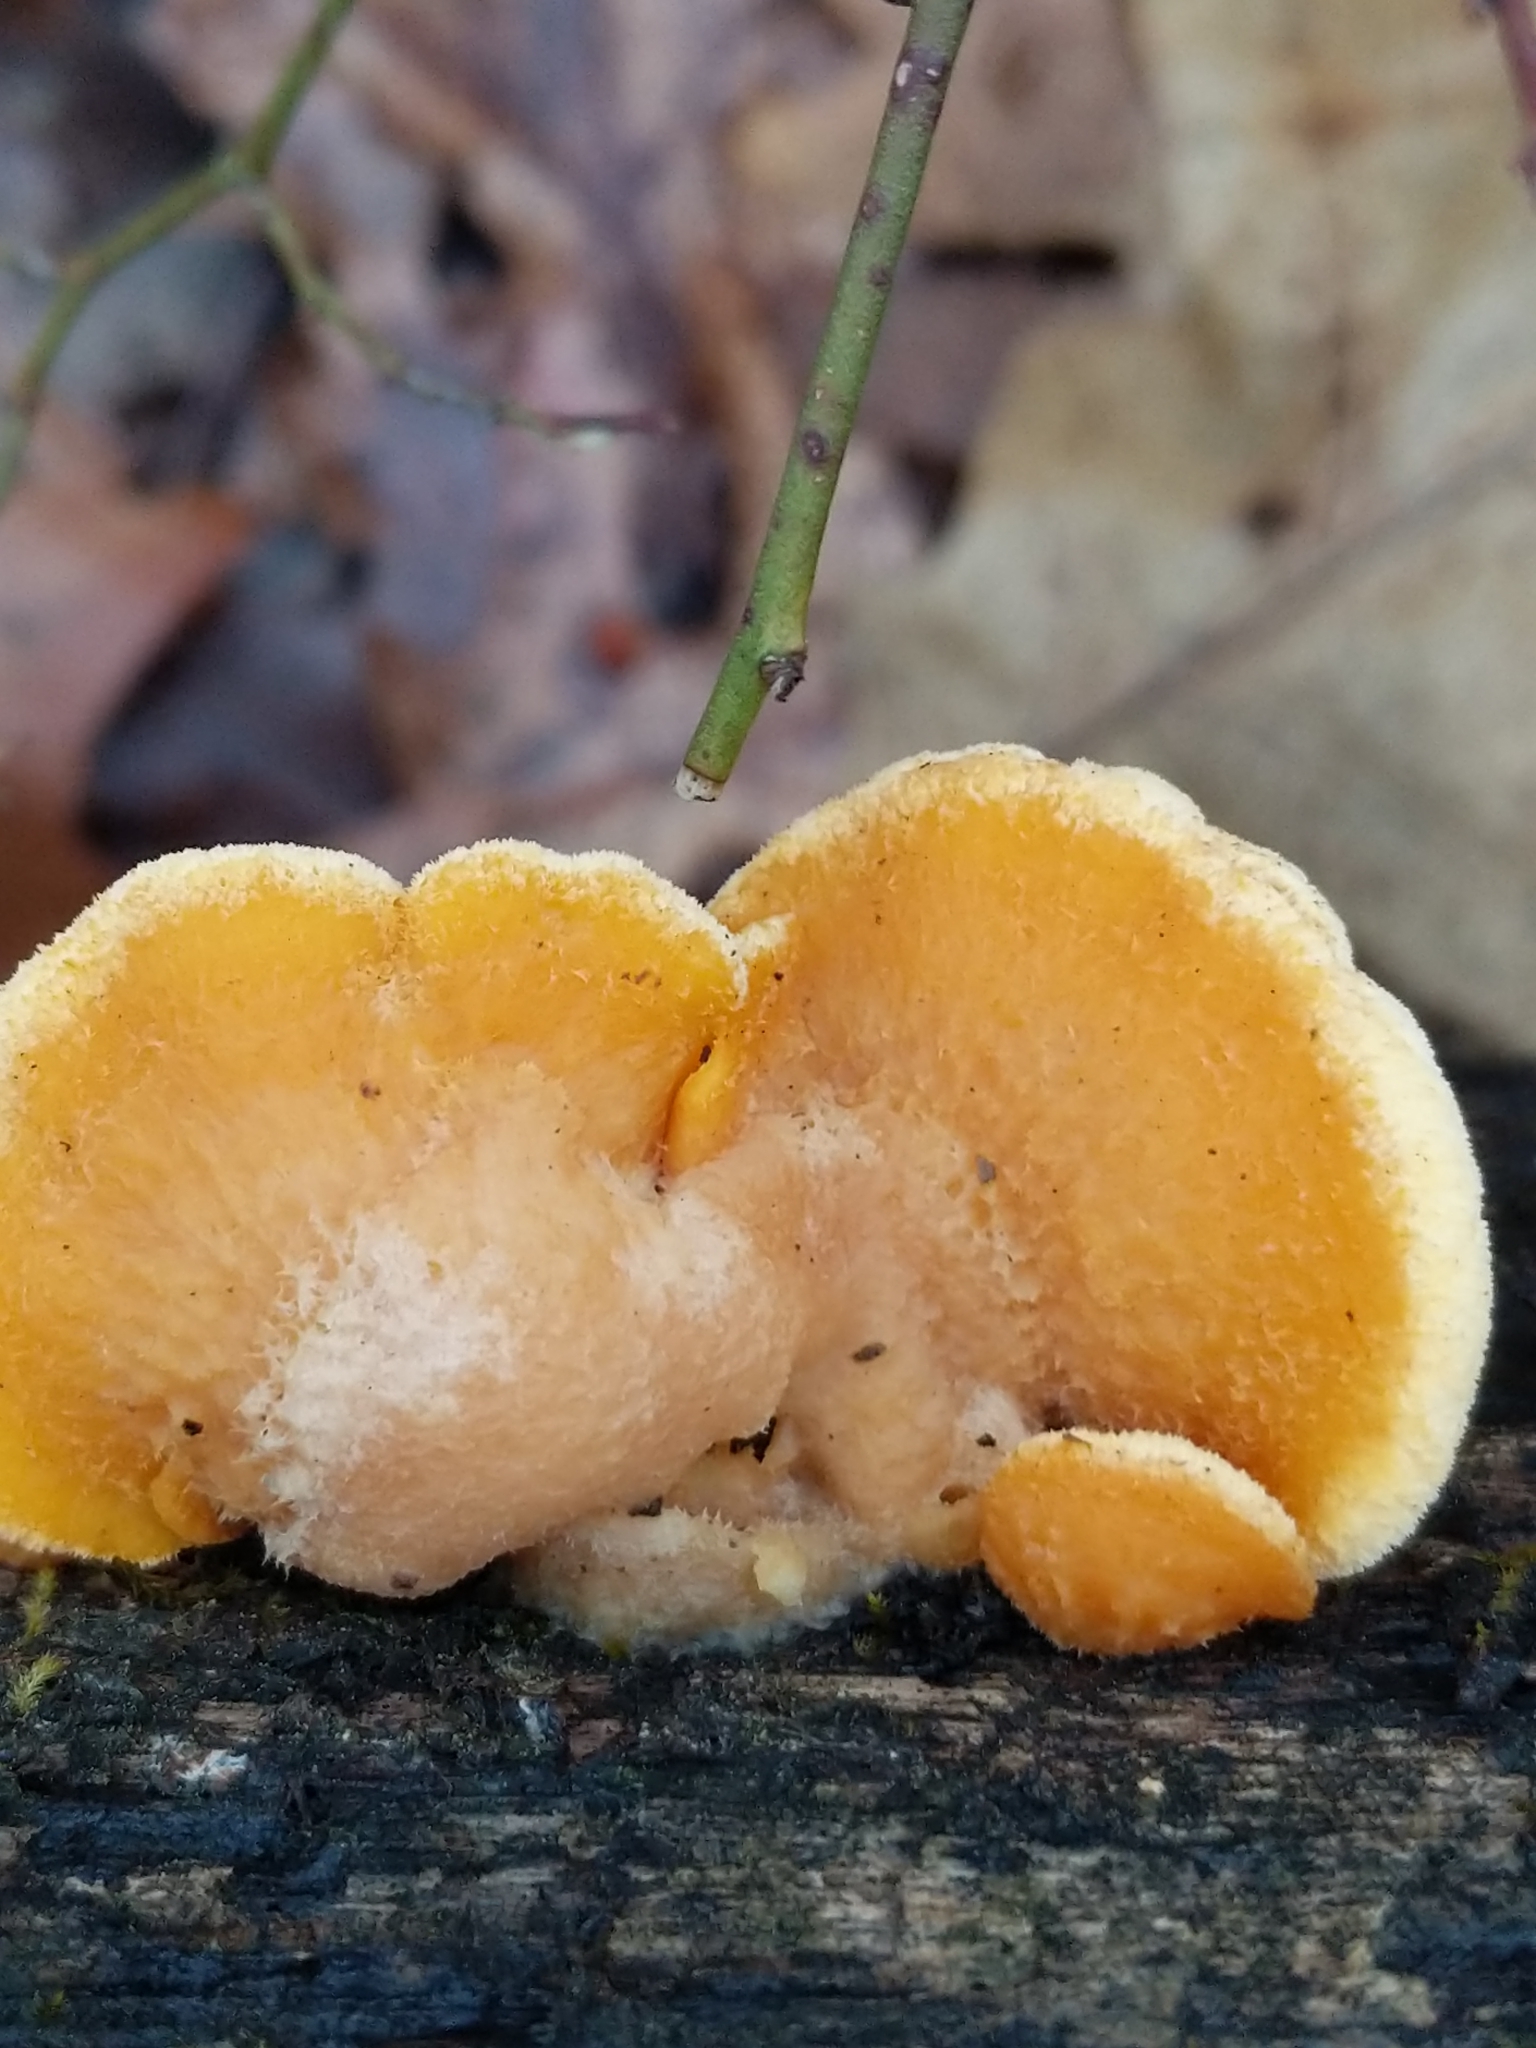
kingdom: Fungi
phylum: Basidiomycota
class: Agaricomycetes
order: Agaricales
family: Phyllotopsidaceae
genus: Phyllotopsis
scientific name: Phyllotopsis nidulans
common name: Orange mock oyster
